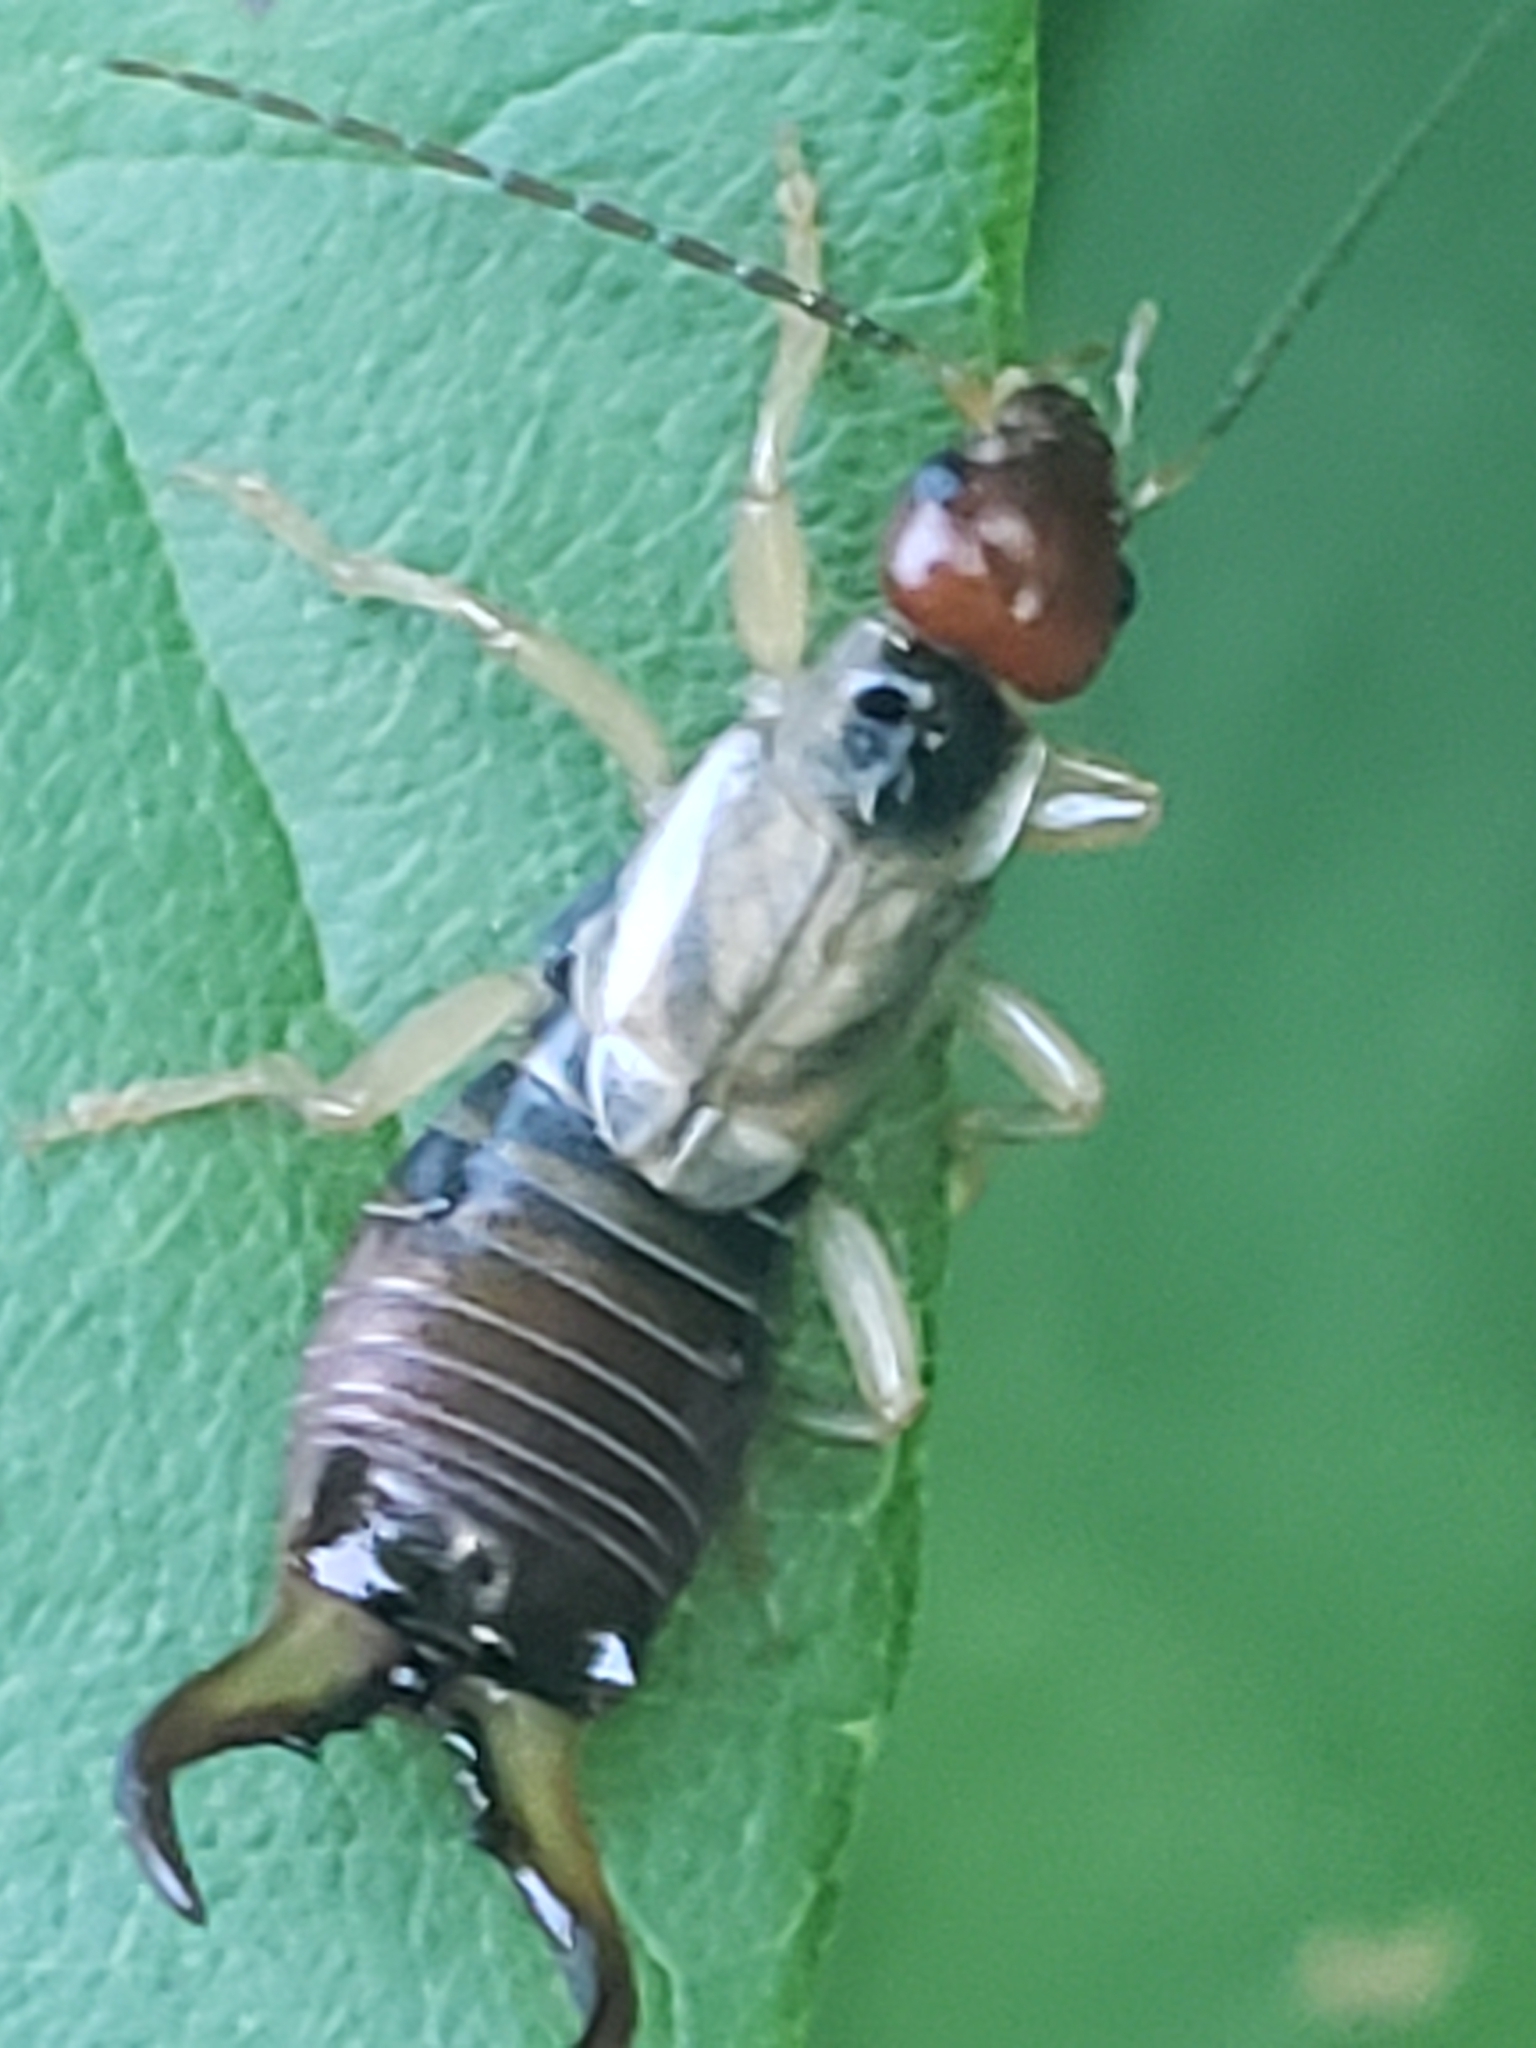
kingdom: Animalia
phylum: Arthropoda
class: Insecta
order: Dermaptera
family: Forficulidae
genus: Forficula
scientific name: Forficula
